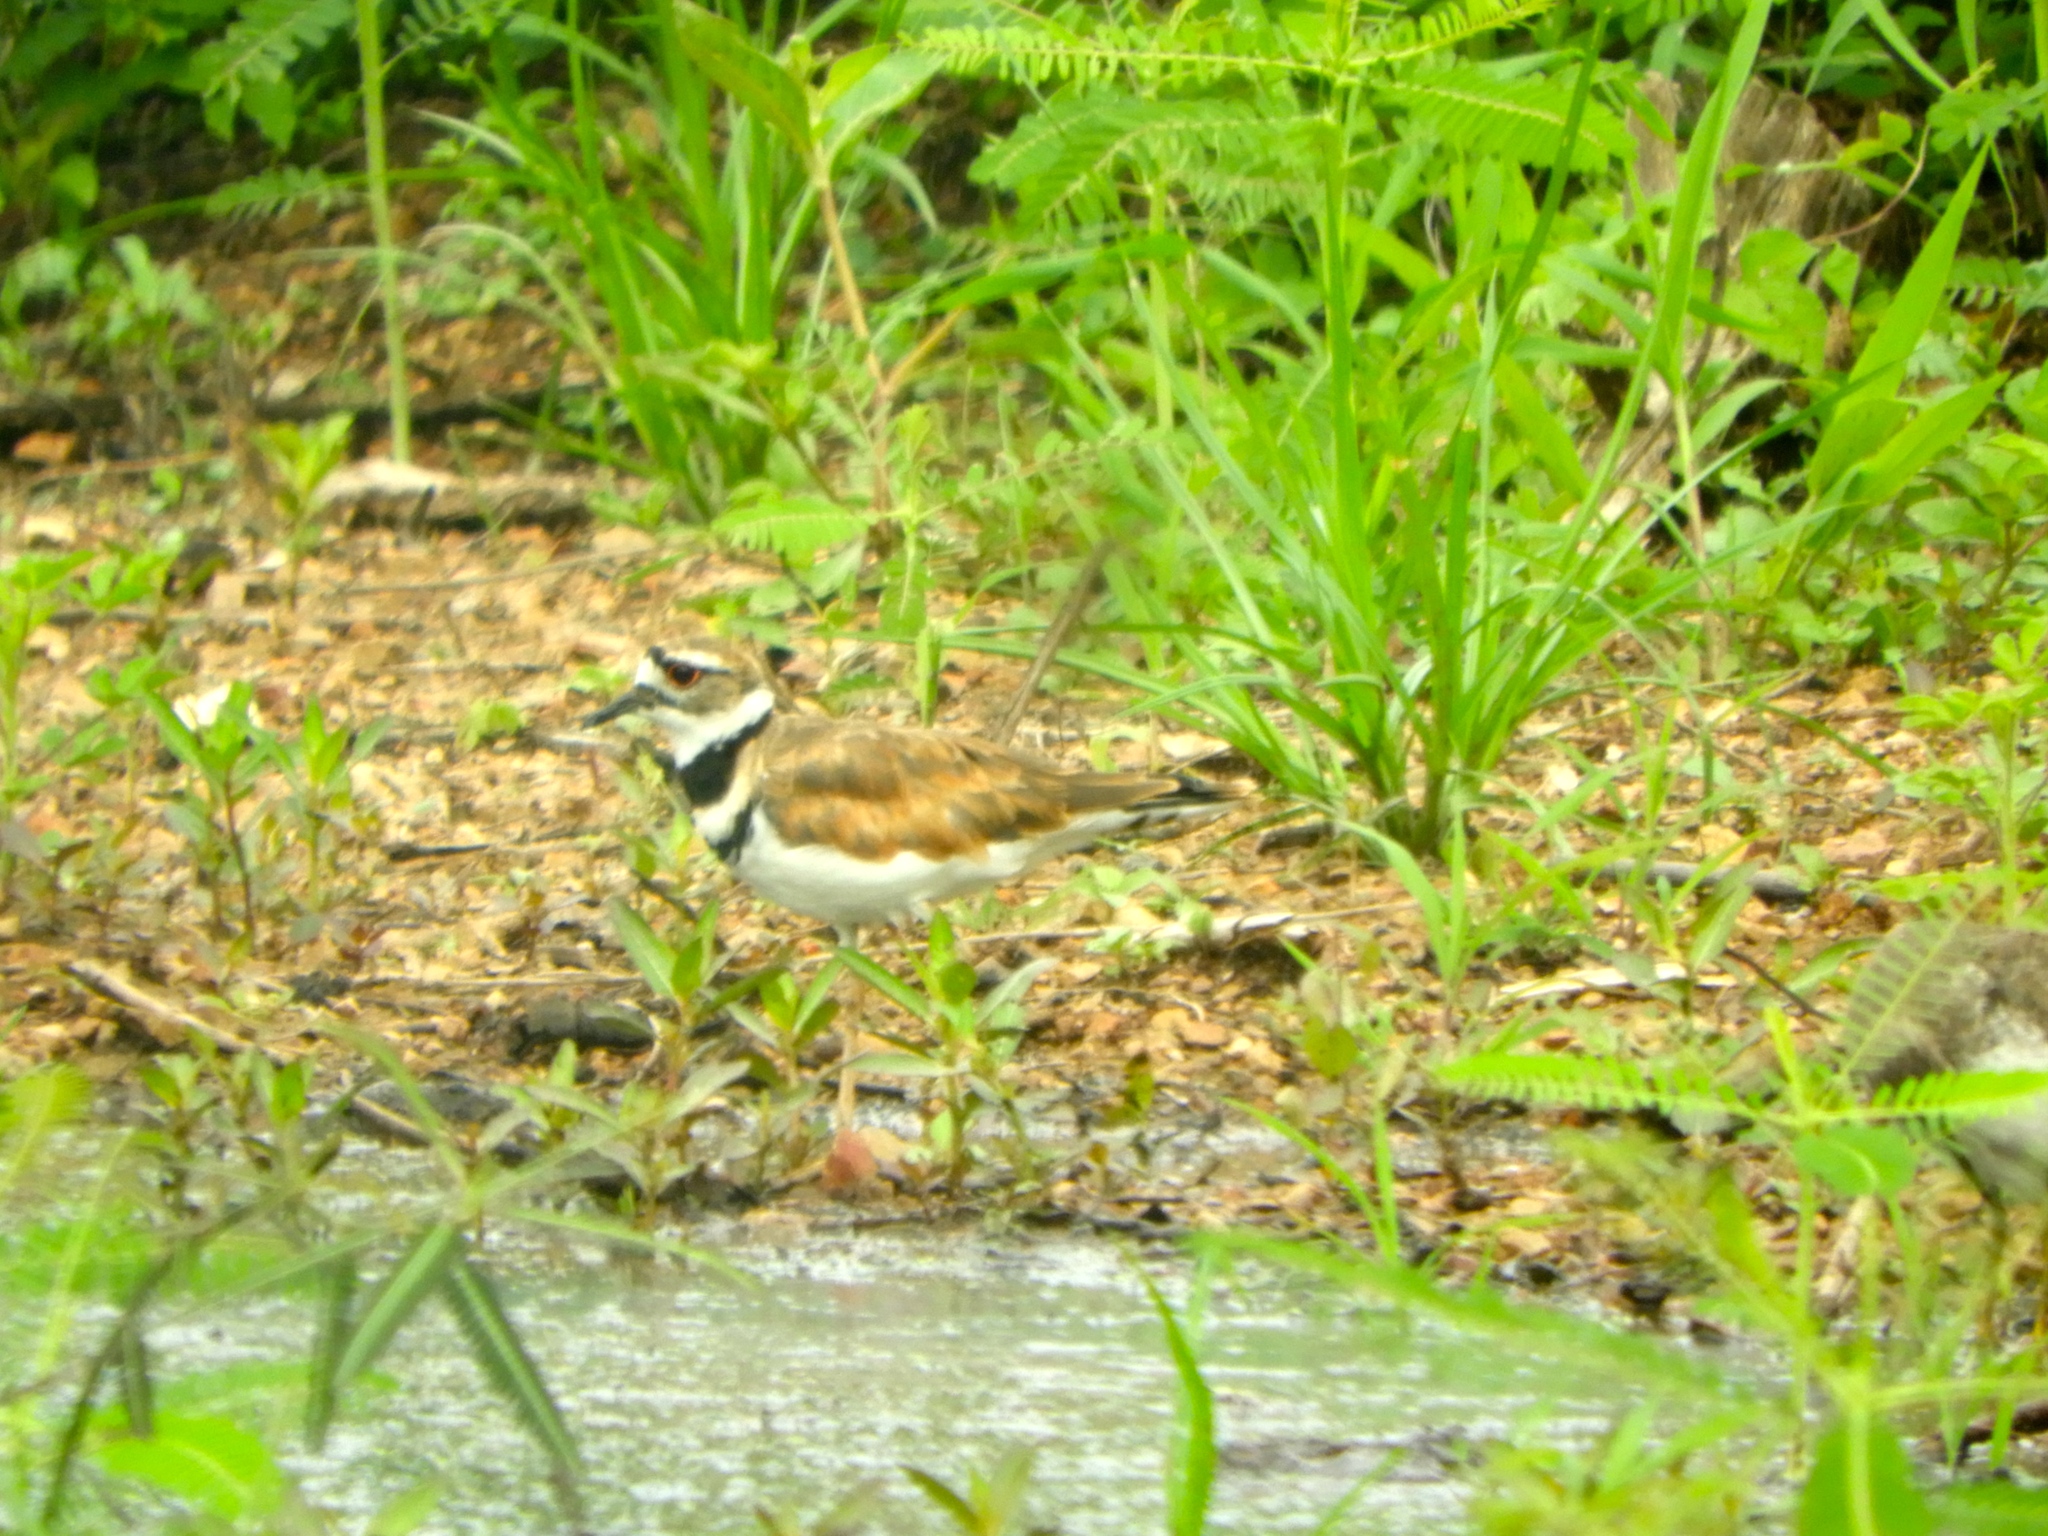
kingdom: Animalia
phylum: Chordata
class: Aves
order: Charadriiformes
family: Charadriidae
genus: Charadrius
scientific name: Charadrius vociferus
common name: Killdeer
